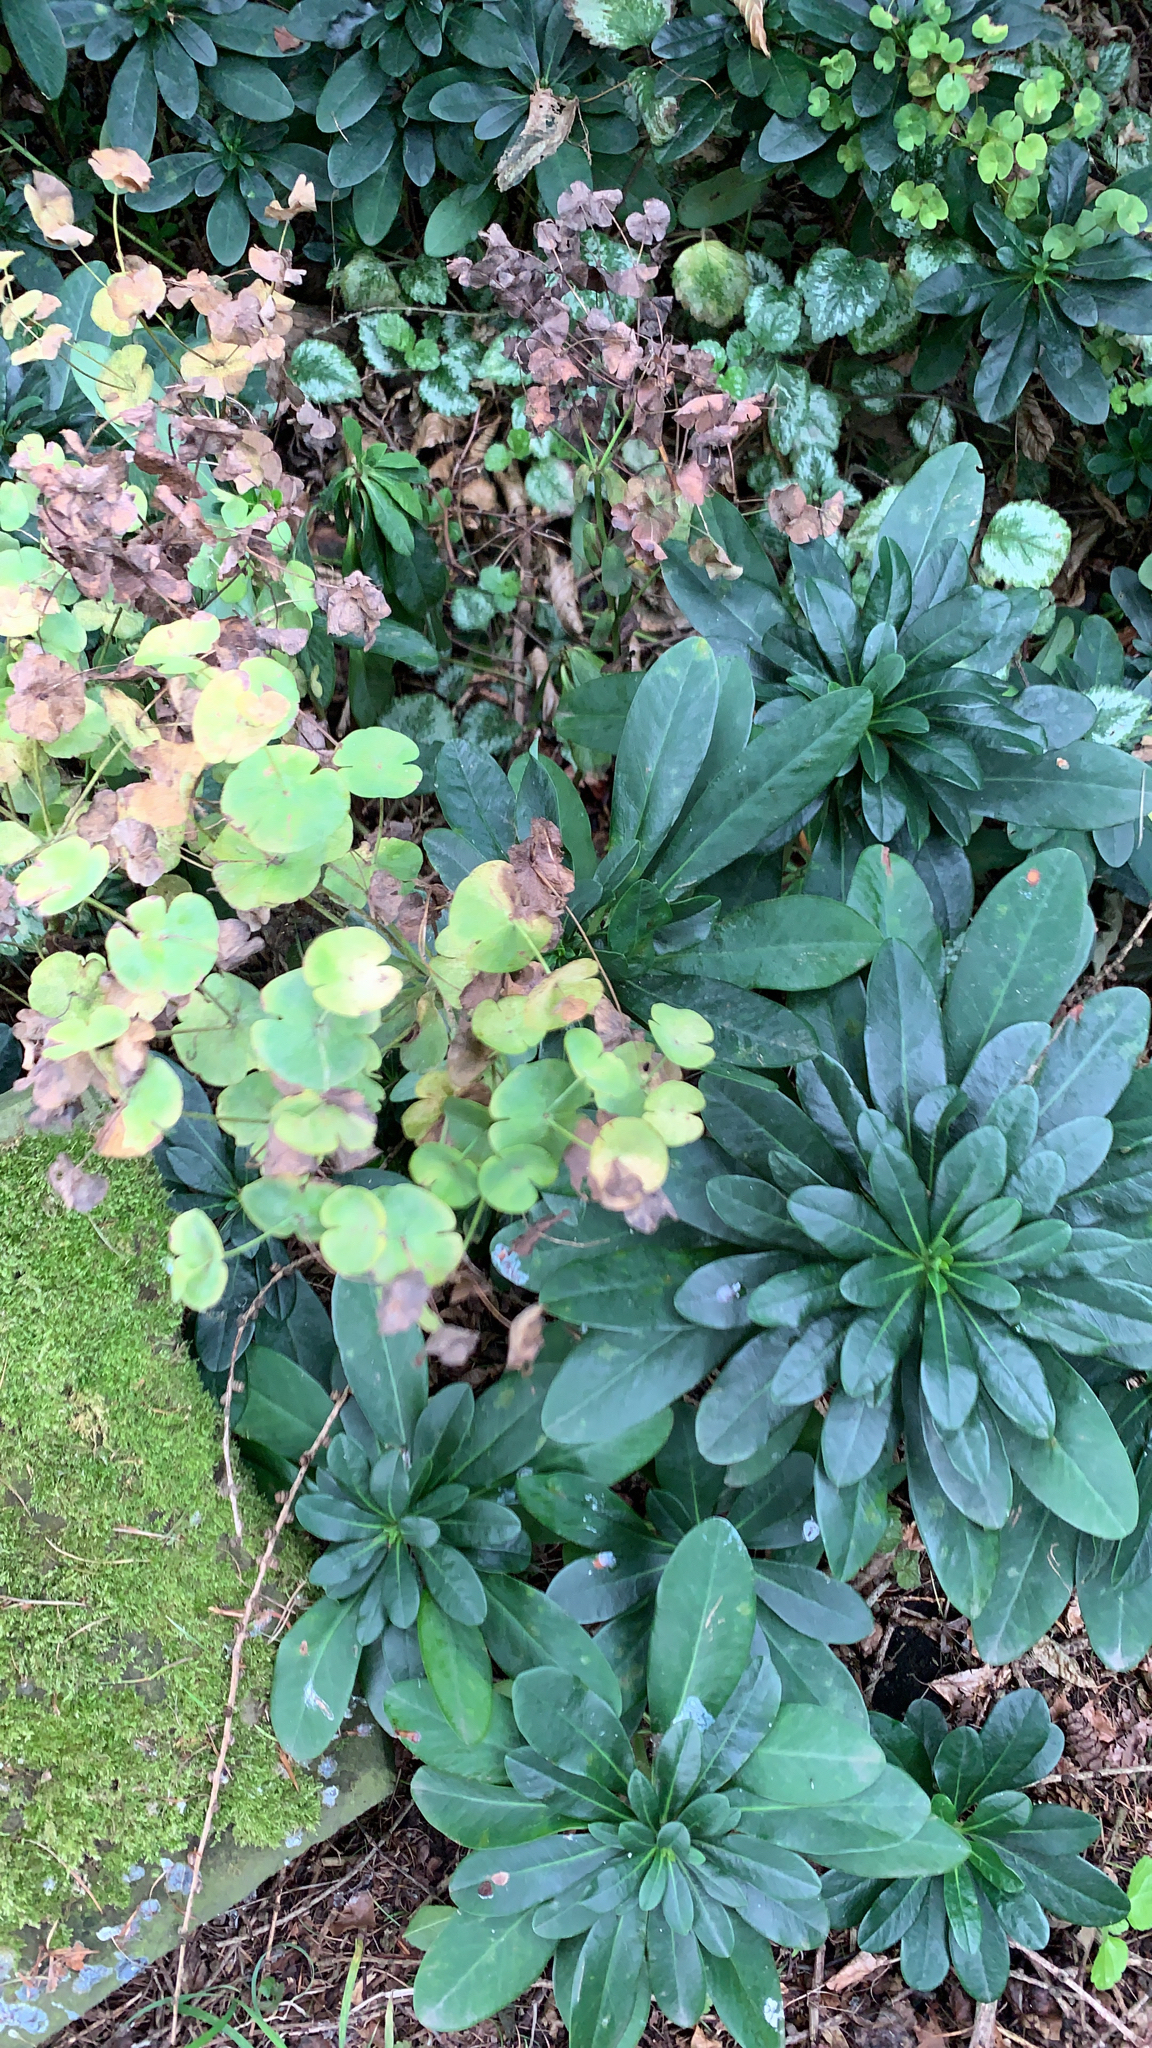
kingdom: Plantae
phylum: Tracheophyta
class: Magnoliopsida
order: Malpighiales
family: Euphorbiaceae
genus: Euphorbia
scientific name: Euphorbia amygdaloides
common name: Wood spurge
